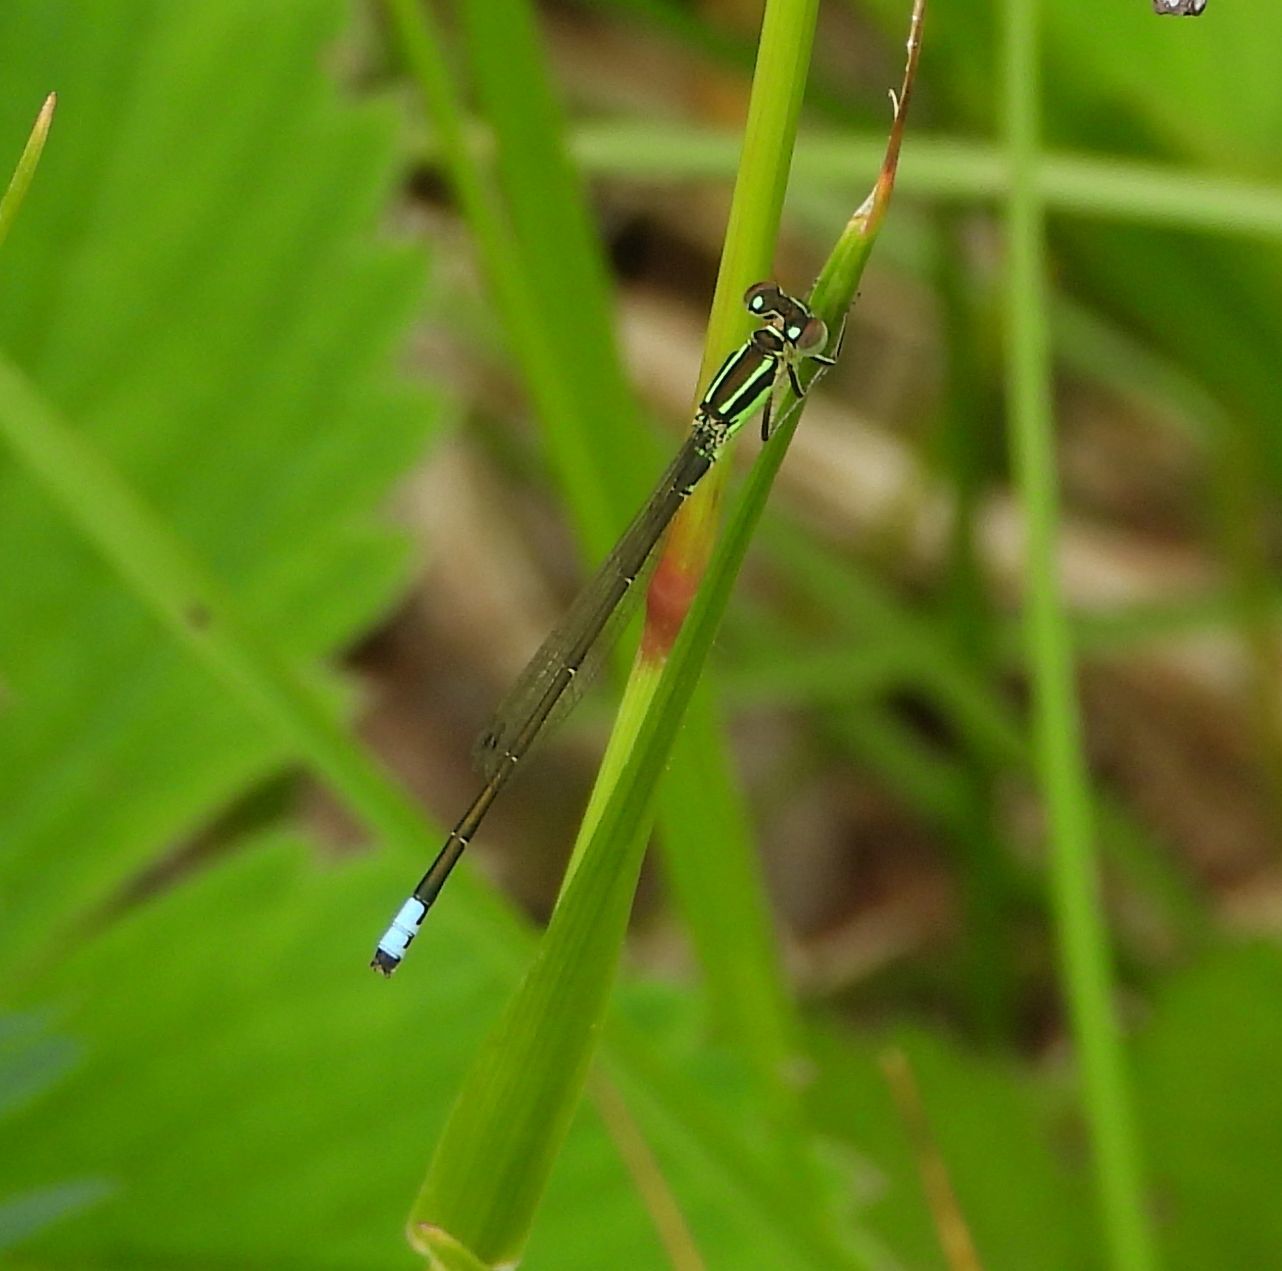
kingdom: Animalia
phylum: Arthropoda
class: Insecta
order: Odonata
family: Coenagrionidae
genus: Ischnura
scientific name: Ischnura verticalis
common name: Eastern forktail
